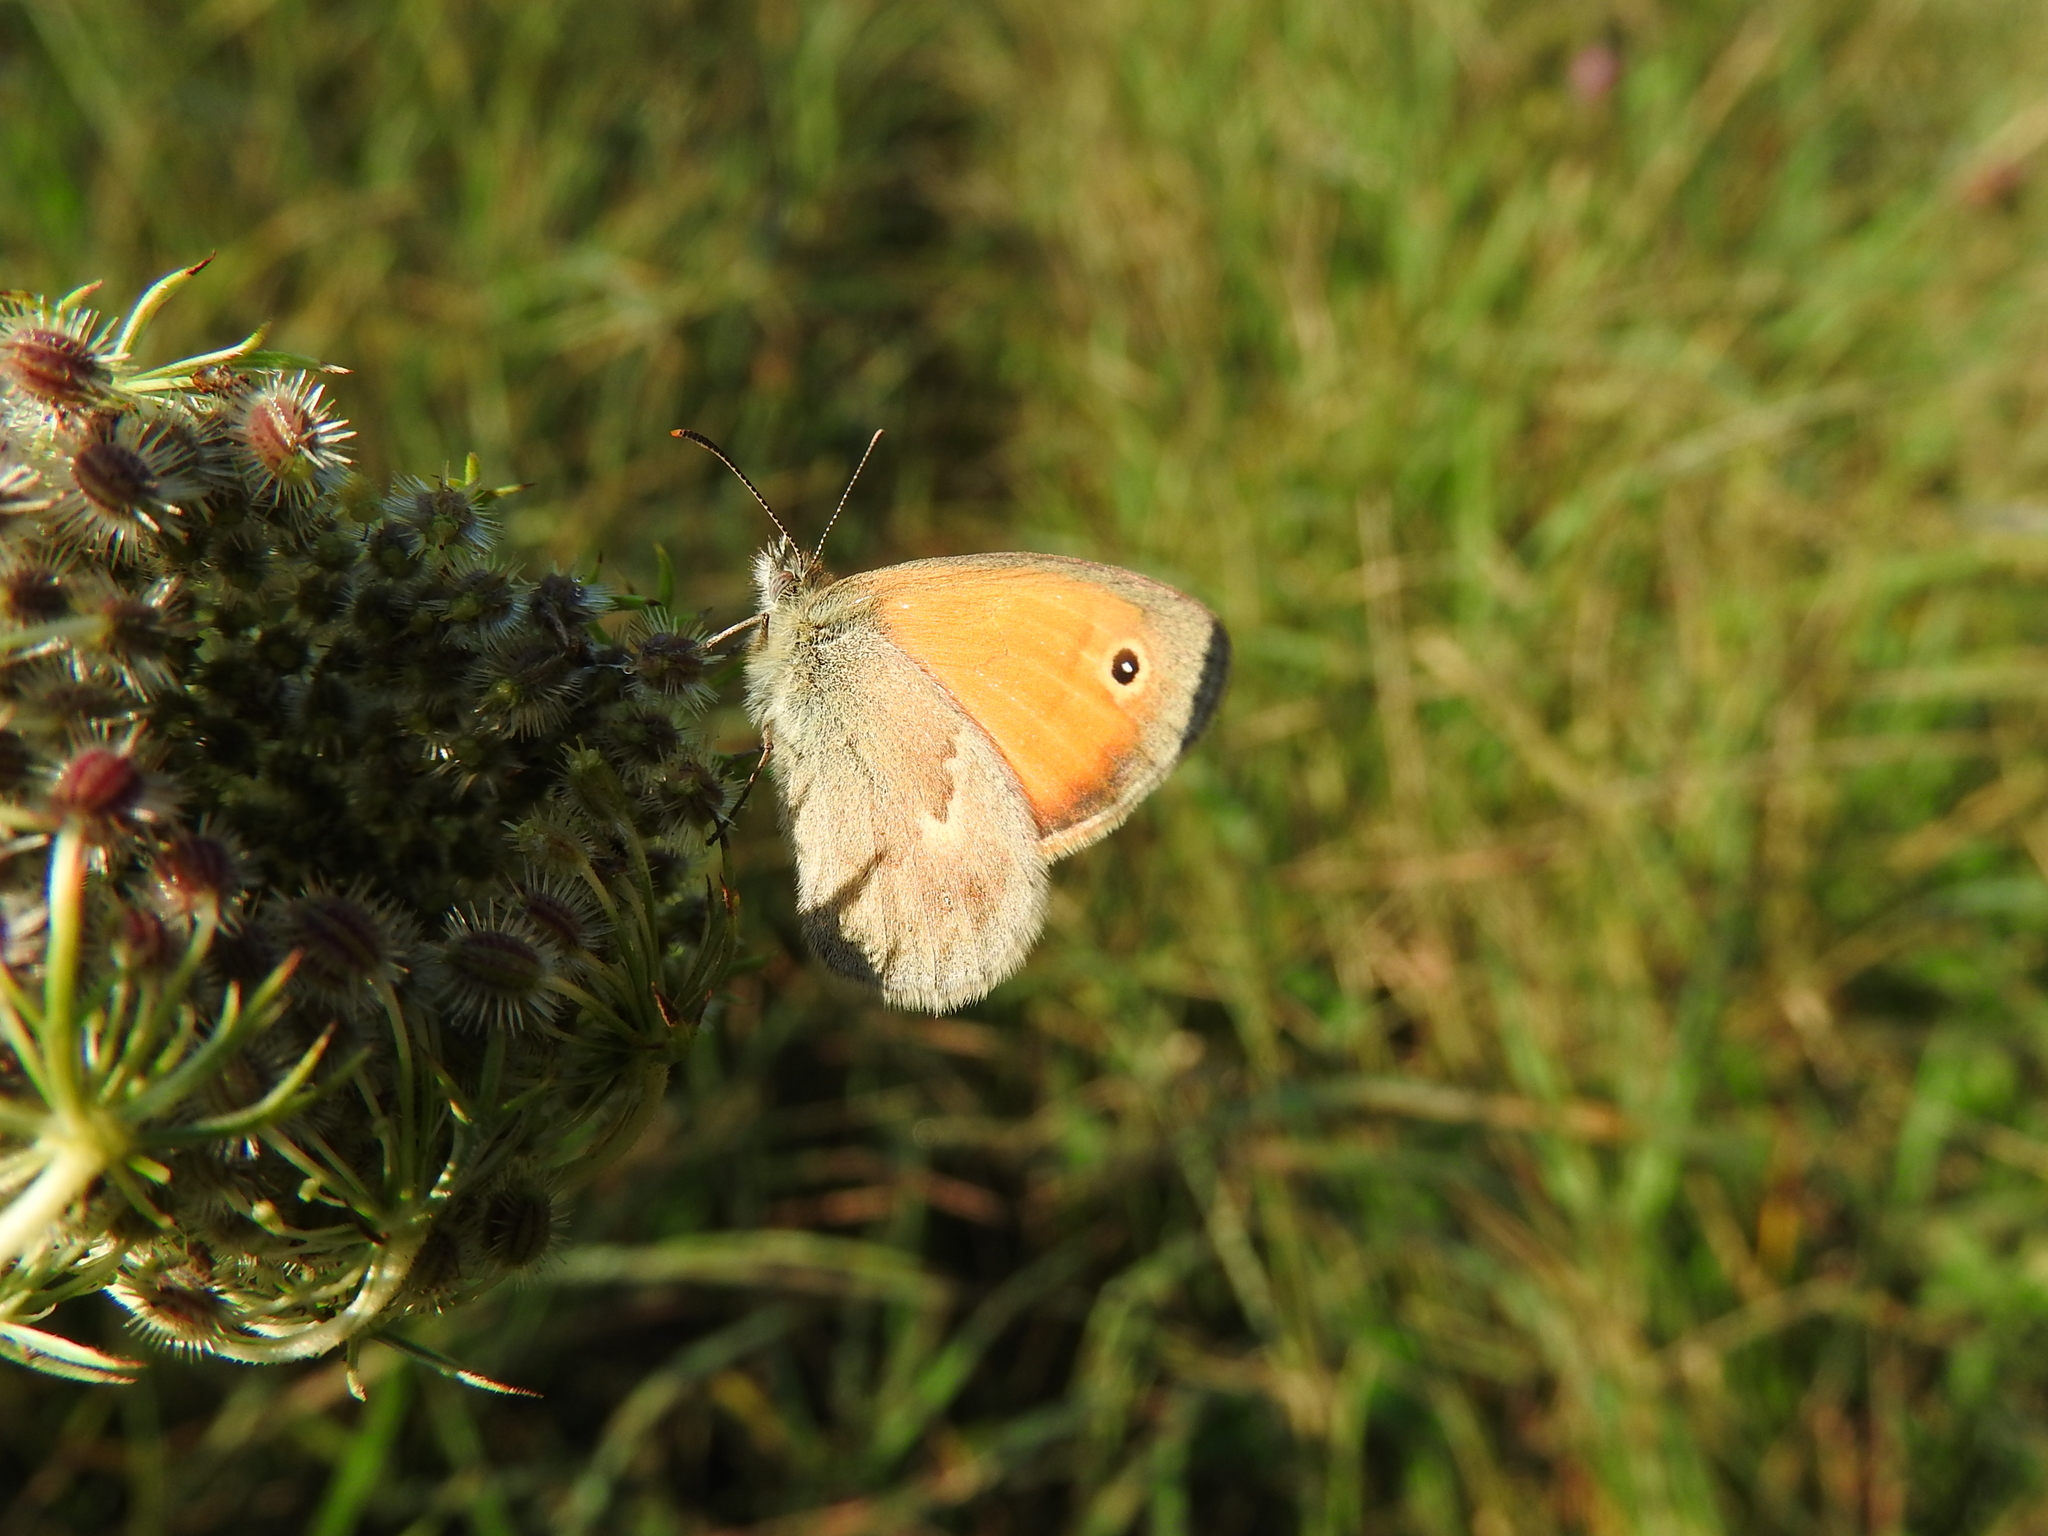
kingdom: Animalia
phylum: Arthropoda
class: Insecta
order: Lepidoptera
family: Nymphalidae
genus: Coenonympha
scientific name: Coenonympha pamphilus
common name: Small heath
